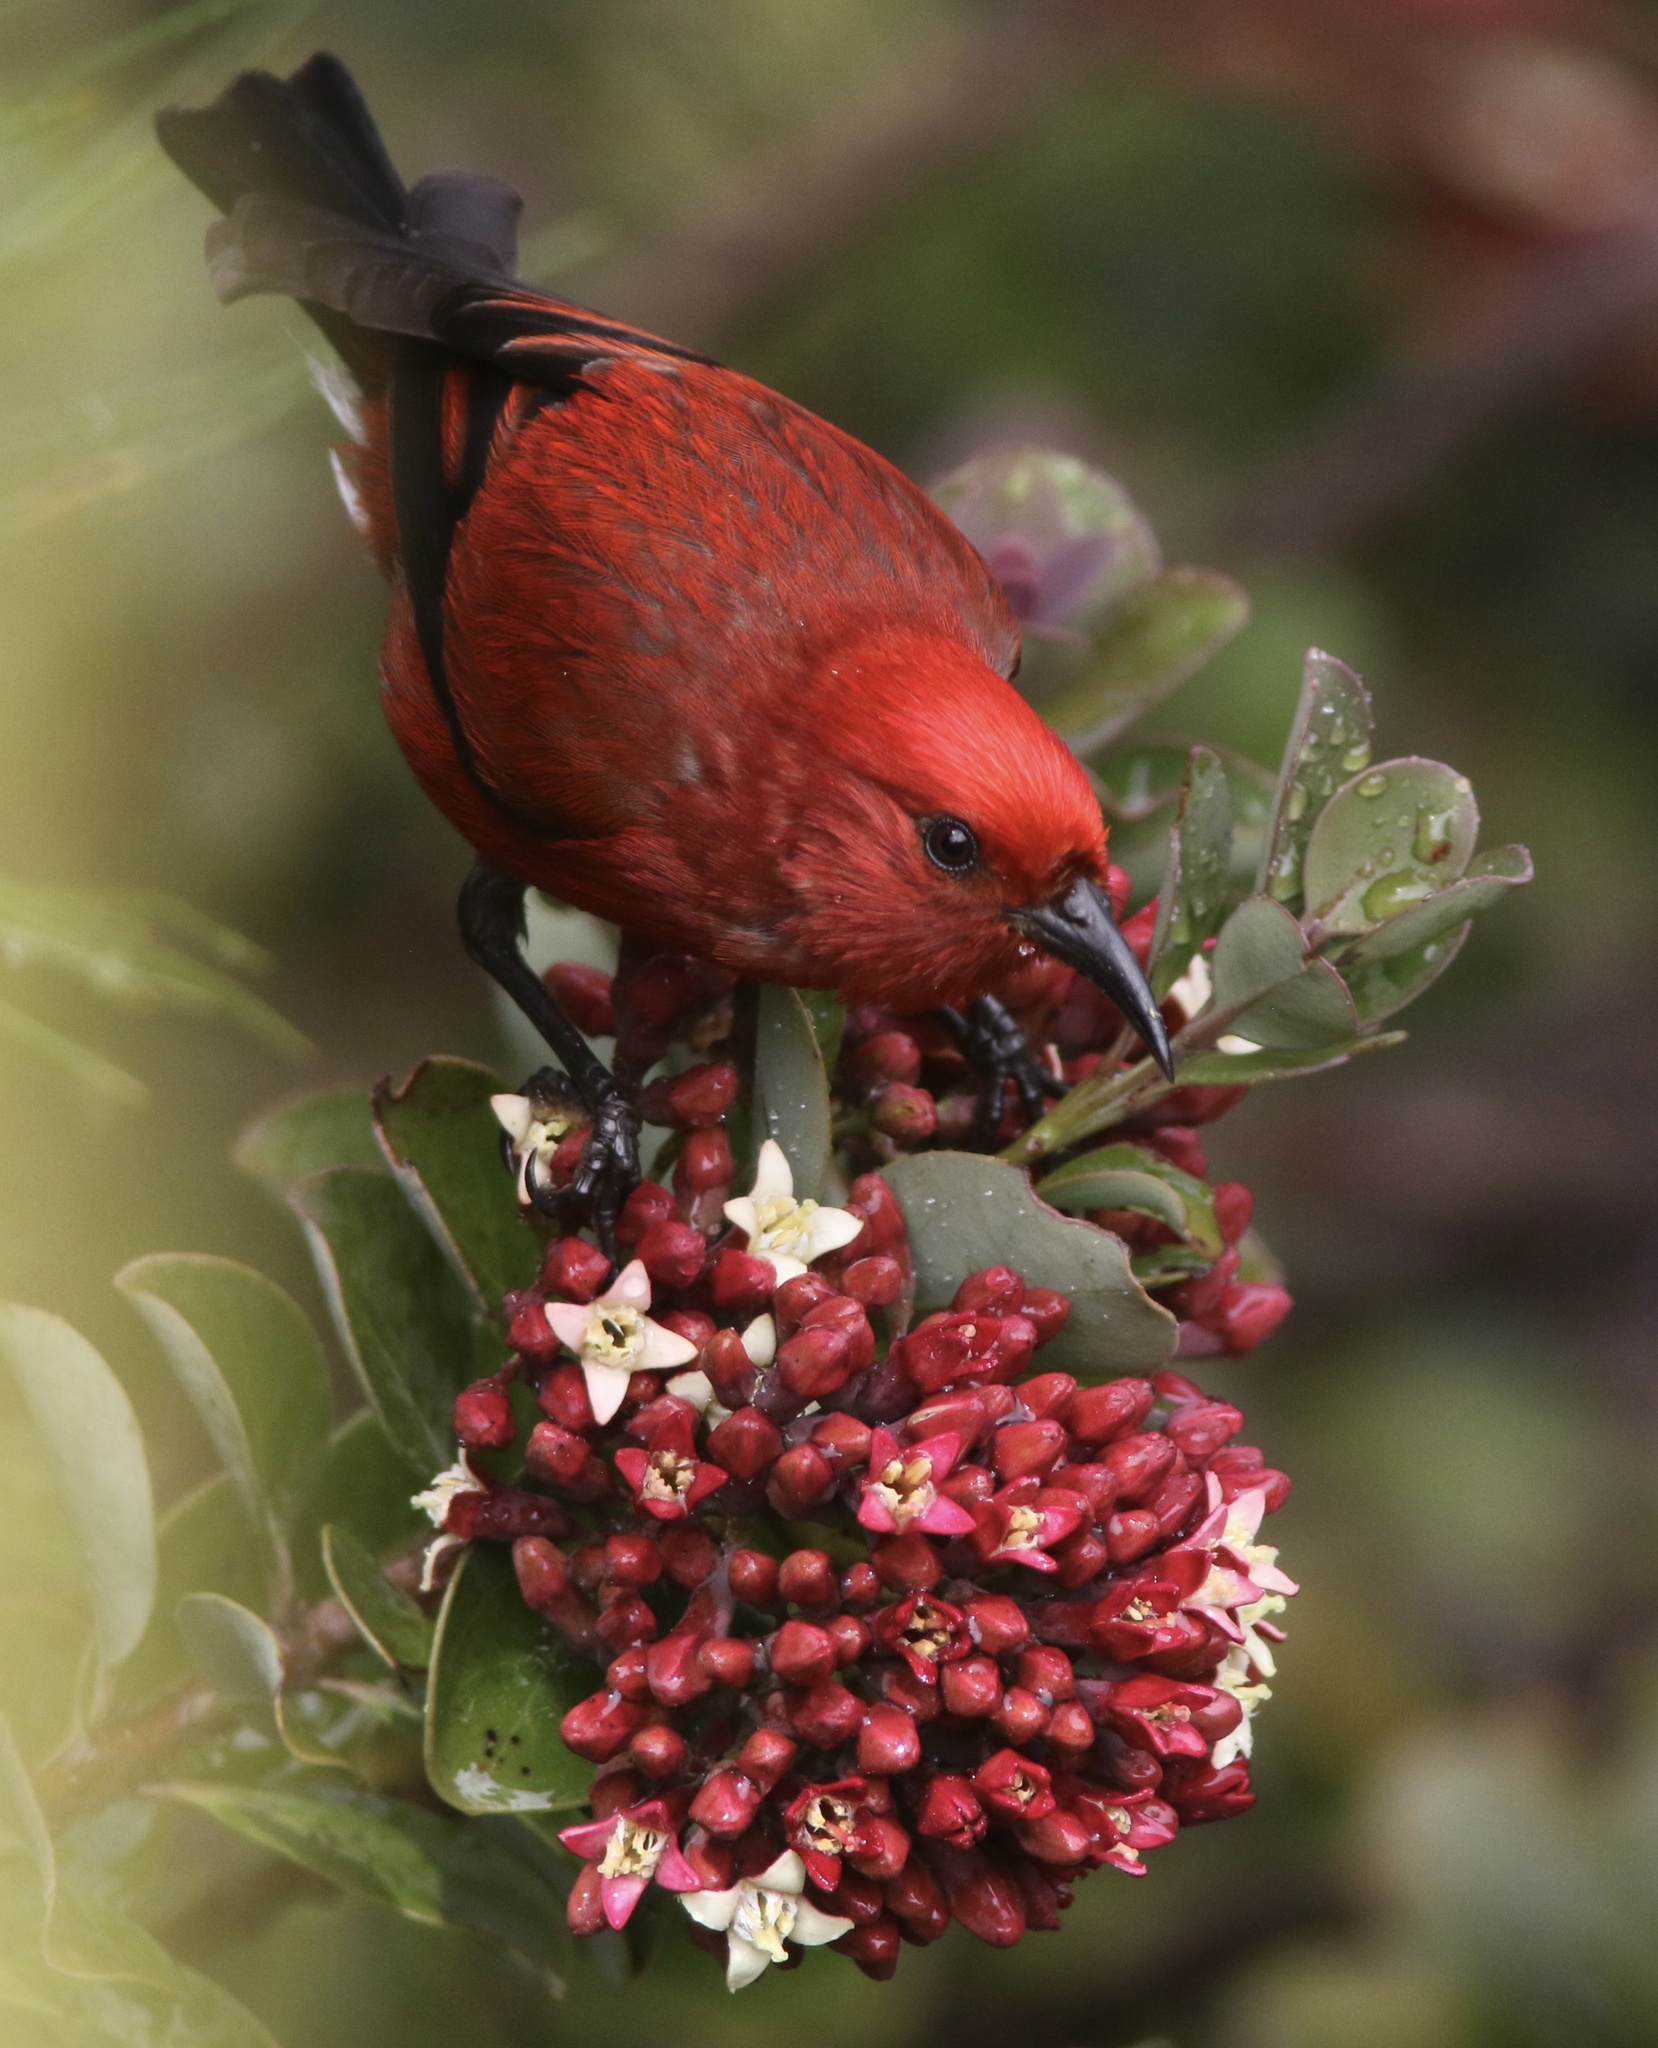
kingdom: Animalia
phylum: Chordata
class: Aves
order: Passeriformes
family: Fringillidae
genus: Himatione
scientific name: Himatione sanguinea
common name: Apapane
